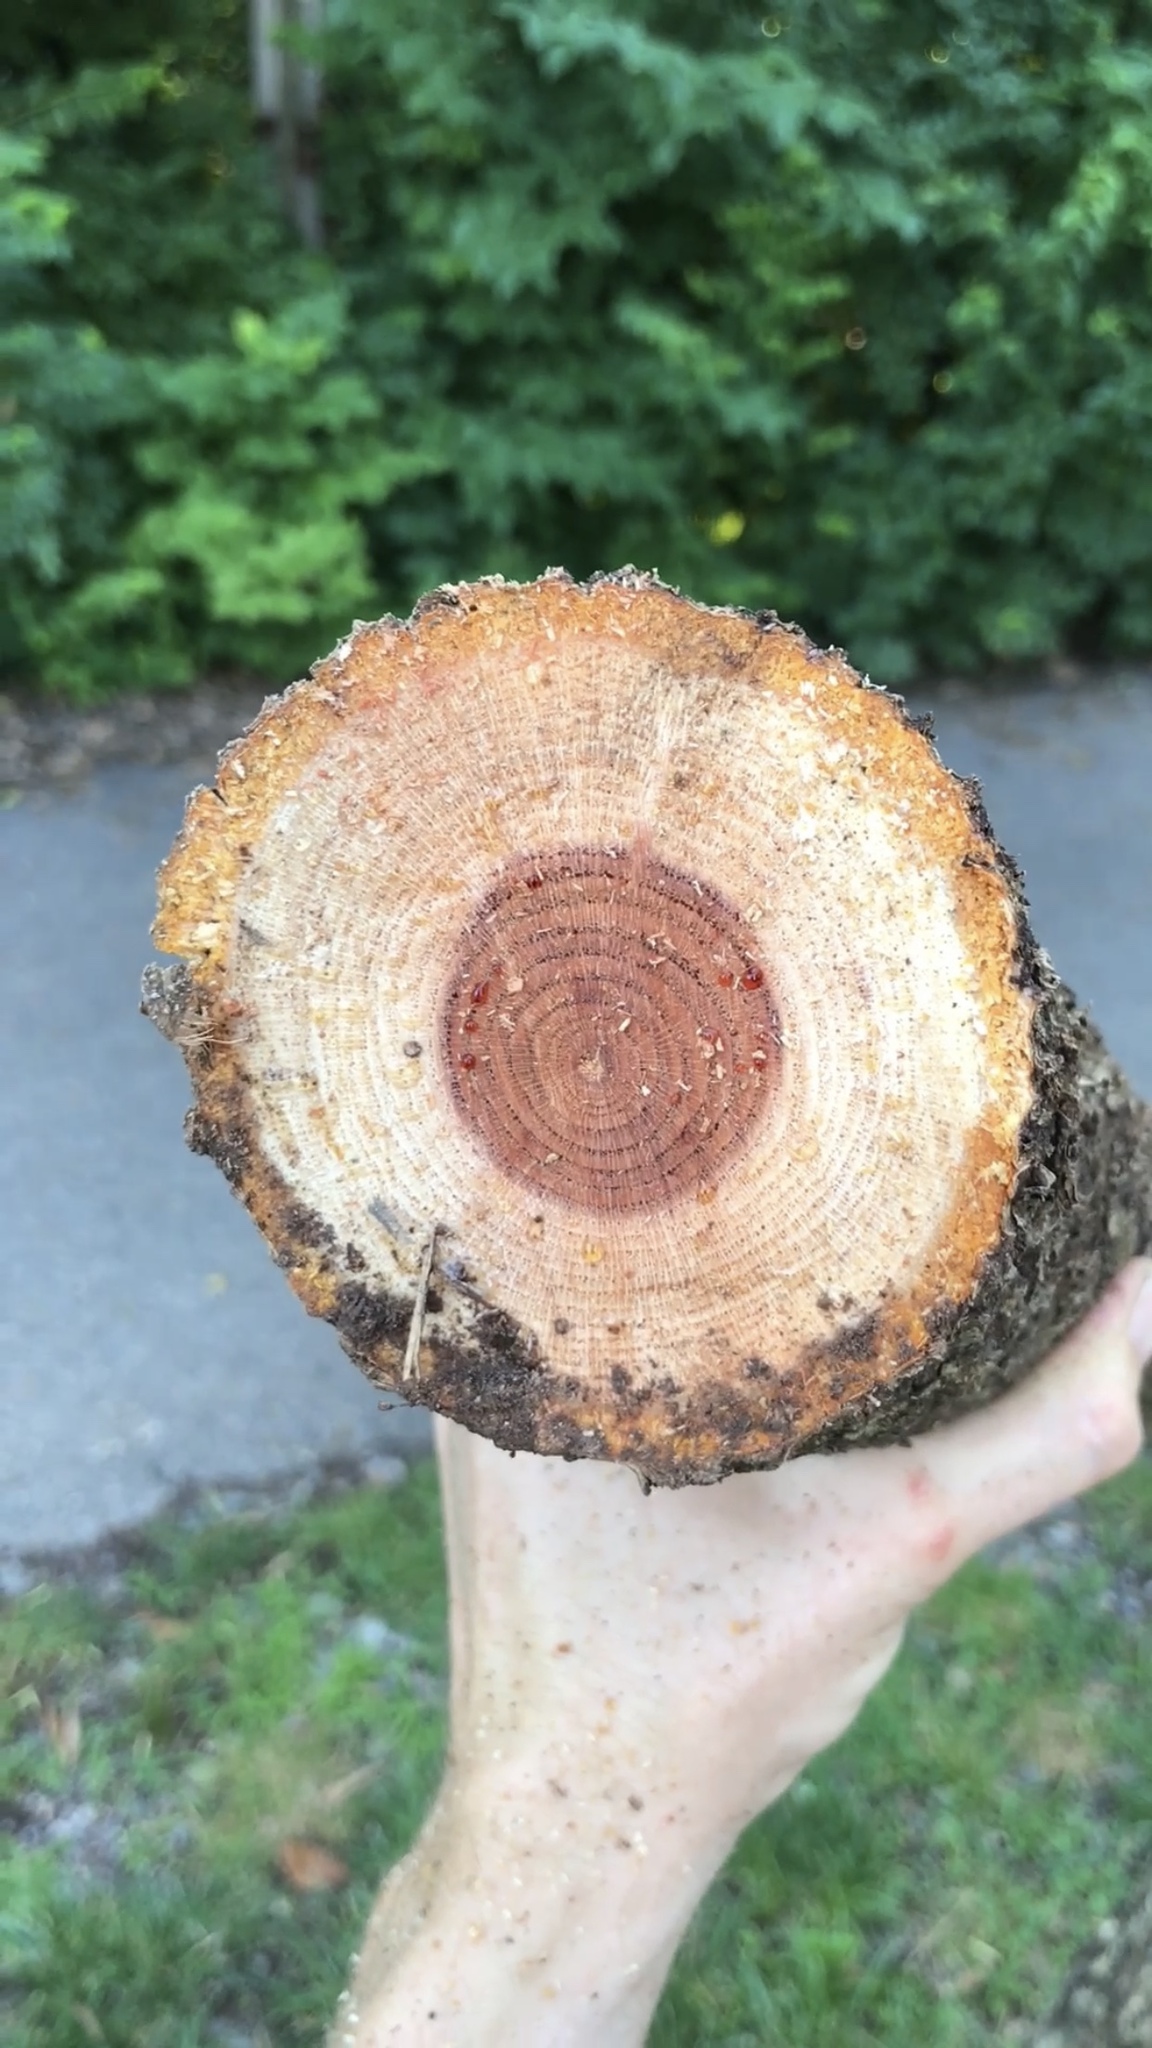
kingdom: Plantae
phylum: Tracheophyta
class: Magnoliopsida
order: Celastrales
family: Celastraceae
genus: Celastrus
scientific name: Celastrus orbiculatus
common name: Oriental bittersweet
